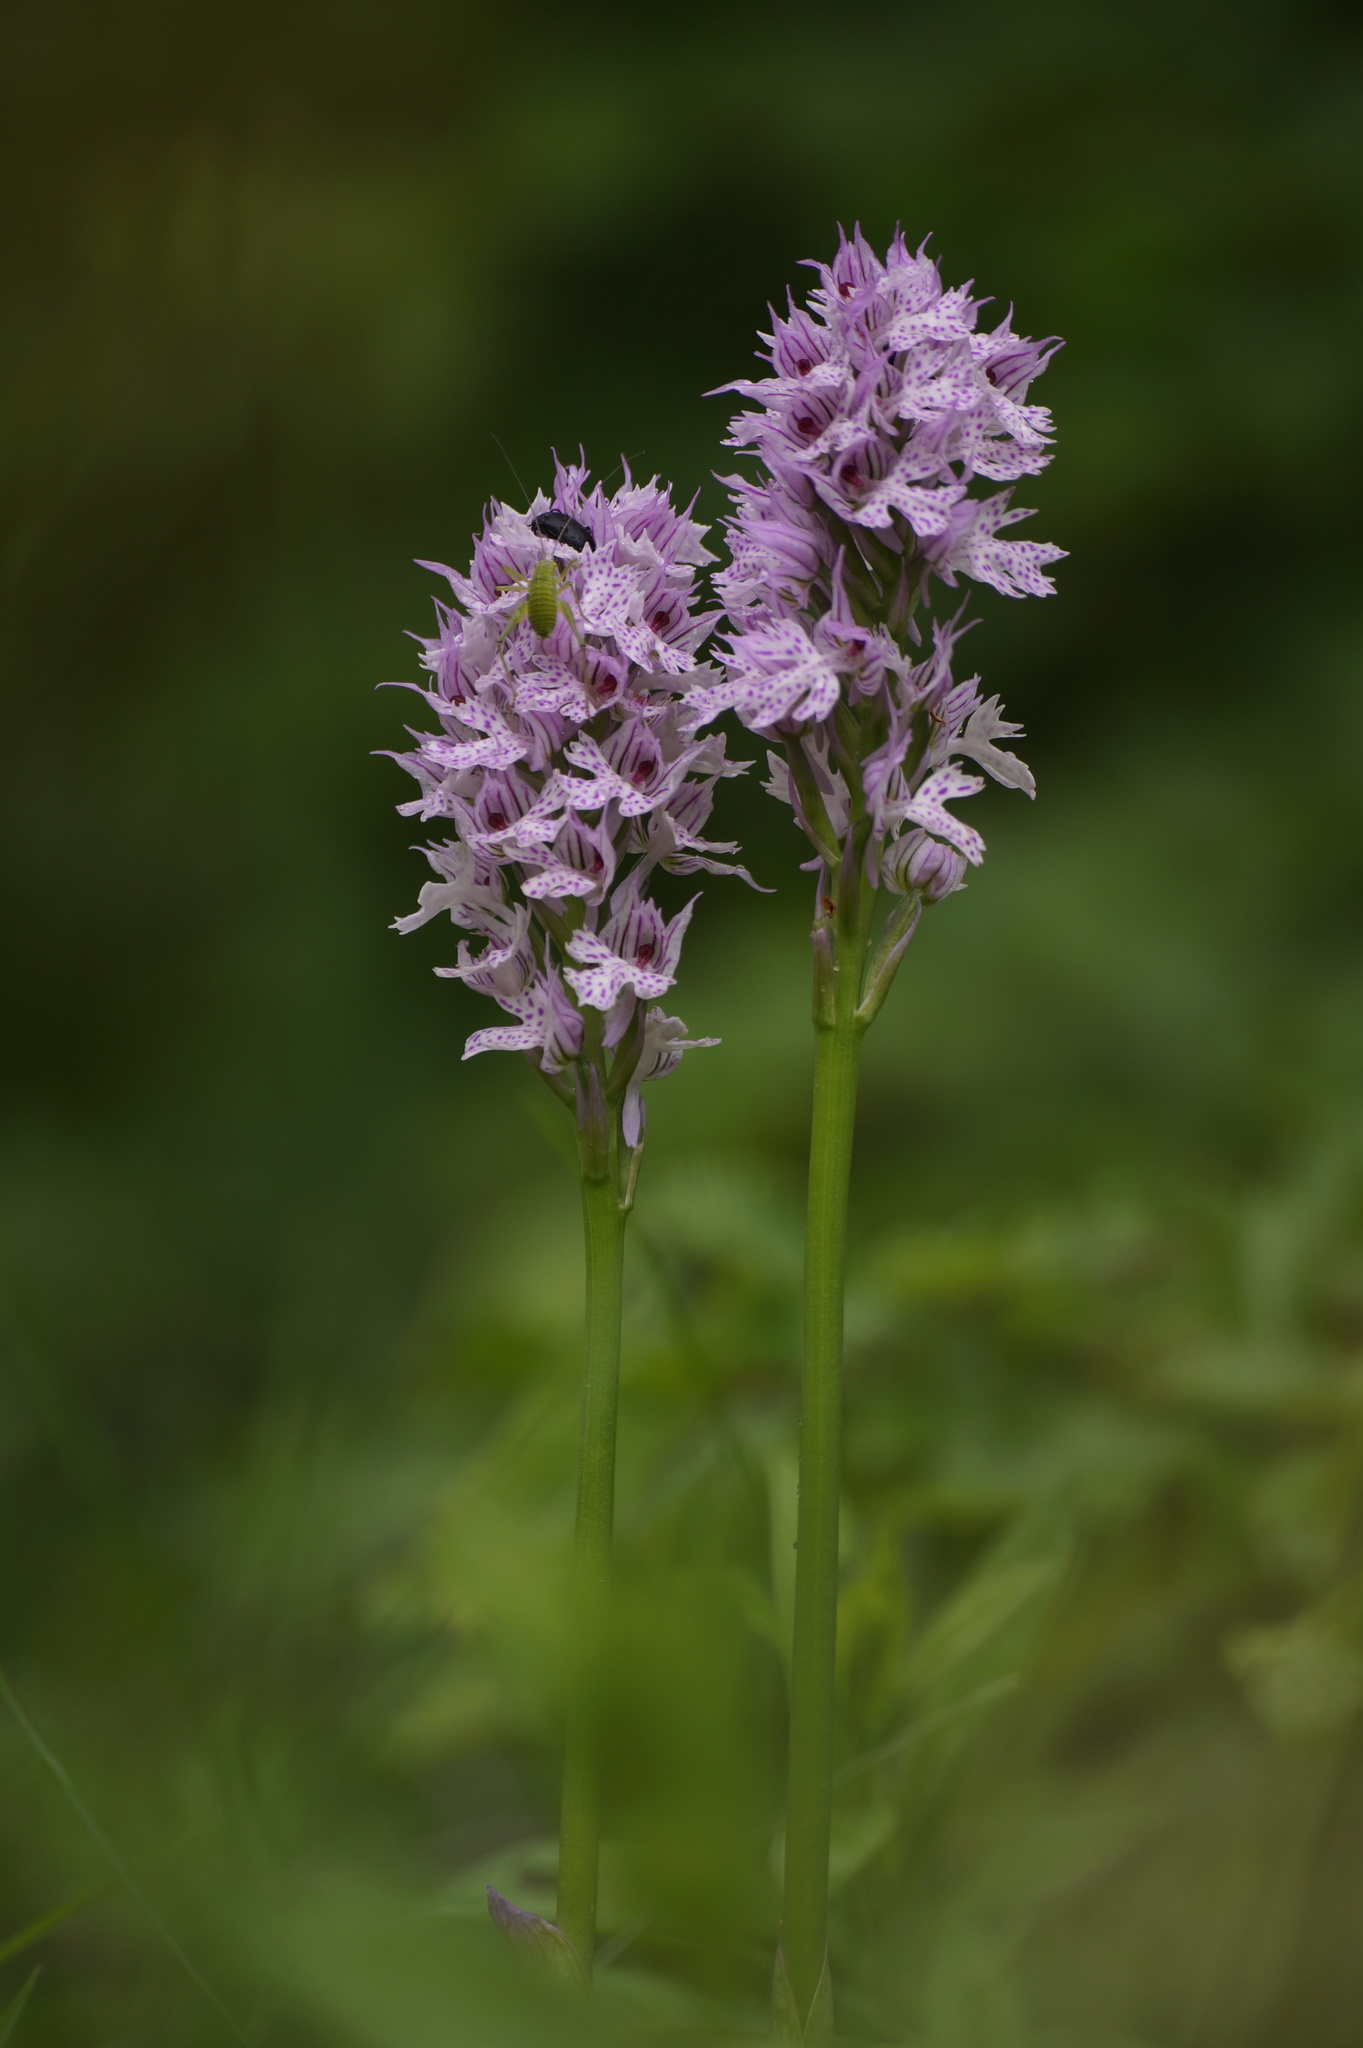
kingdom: Plantae
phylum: Tracheophyta
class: Liliopsida
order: Asparagales
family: Orchidaceae
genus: Neotinea
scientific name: Neotinea tridentata
